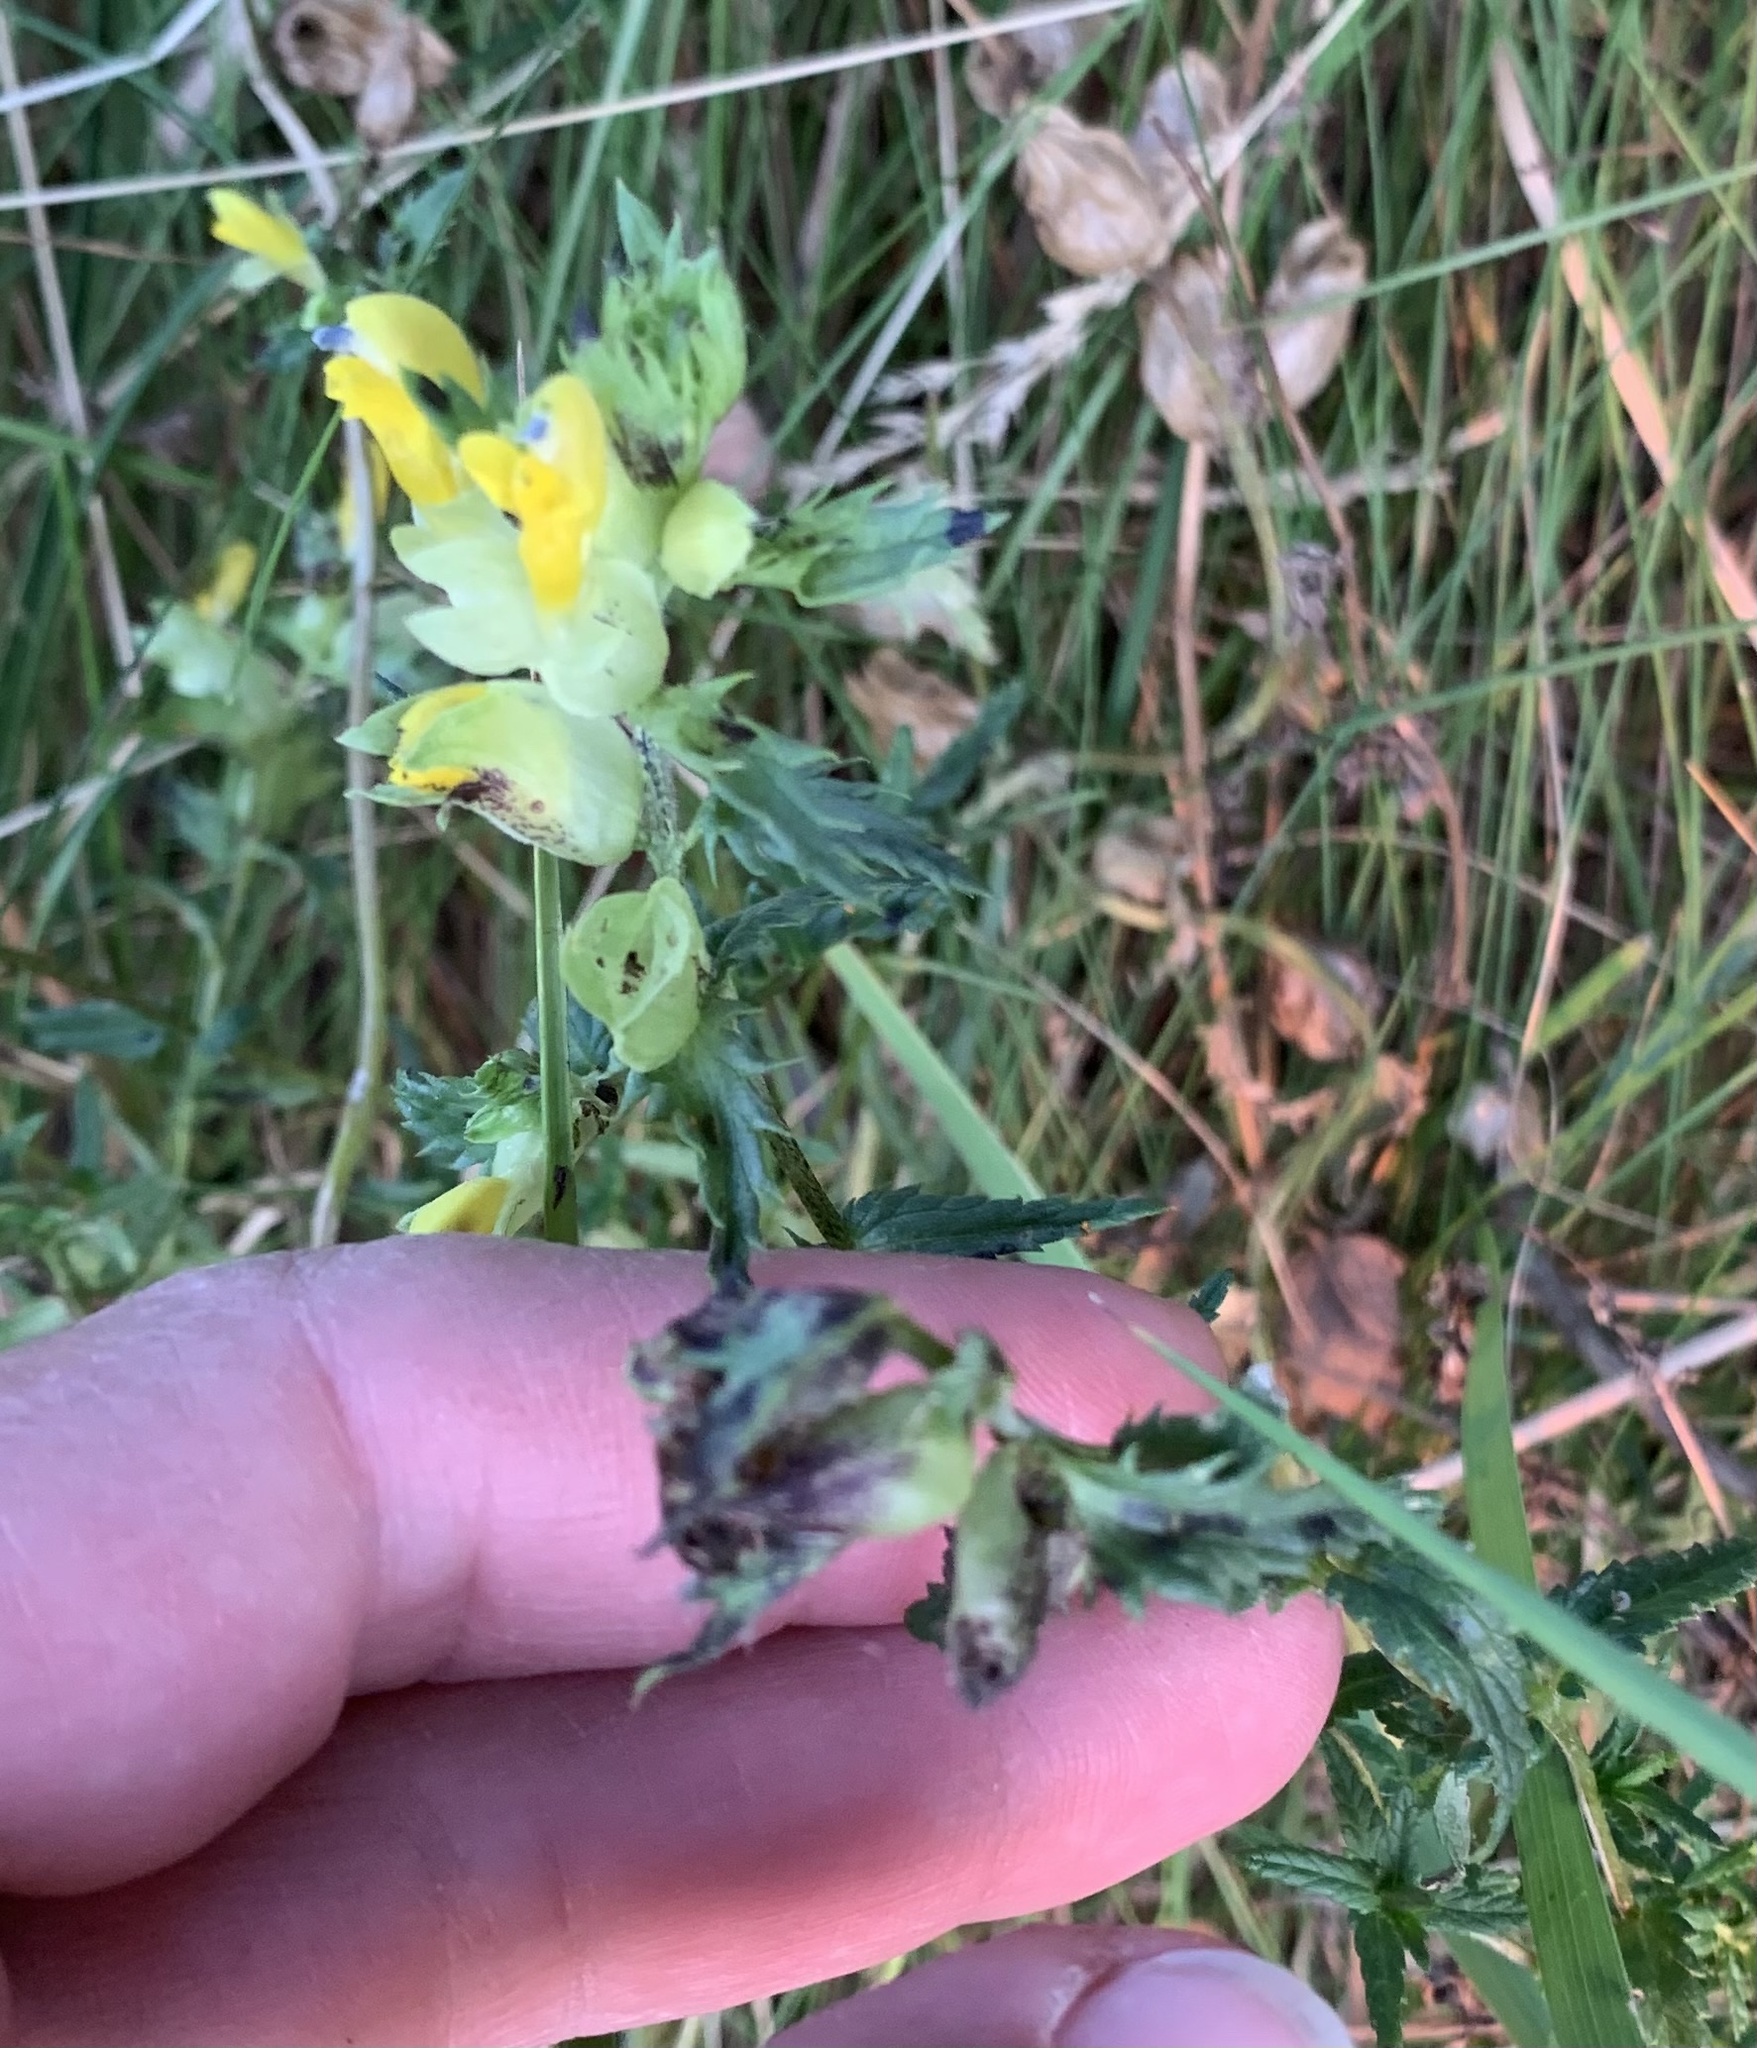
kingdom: Plantae
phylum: Tracheophyta
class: Magnoliopsida
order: Lamiales
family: Orobanchaceae
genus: Rhinanthus
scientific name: Rhinanthus serotinus
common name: Late-flowering yellow rattle
